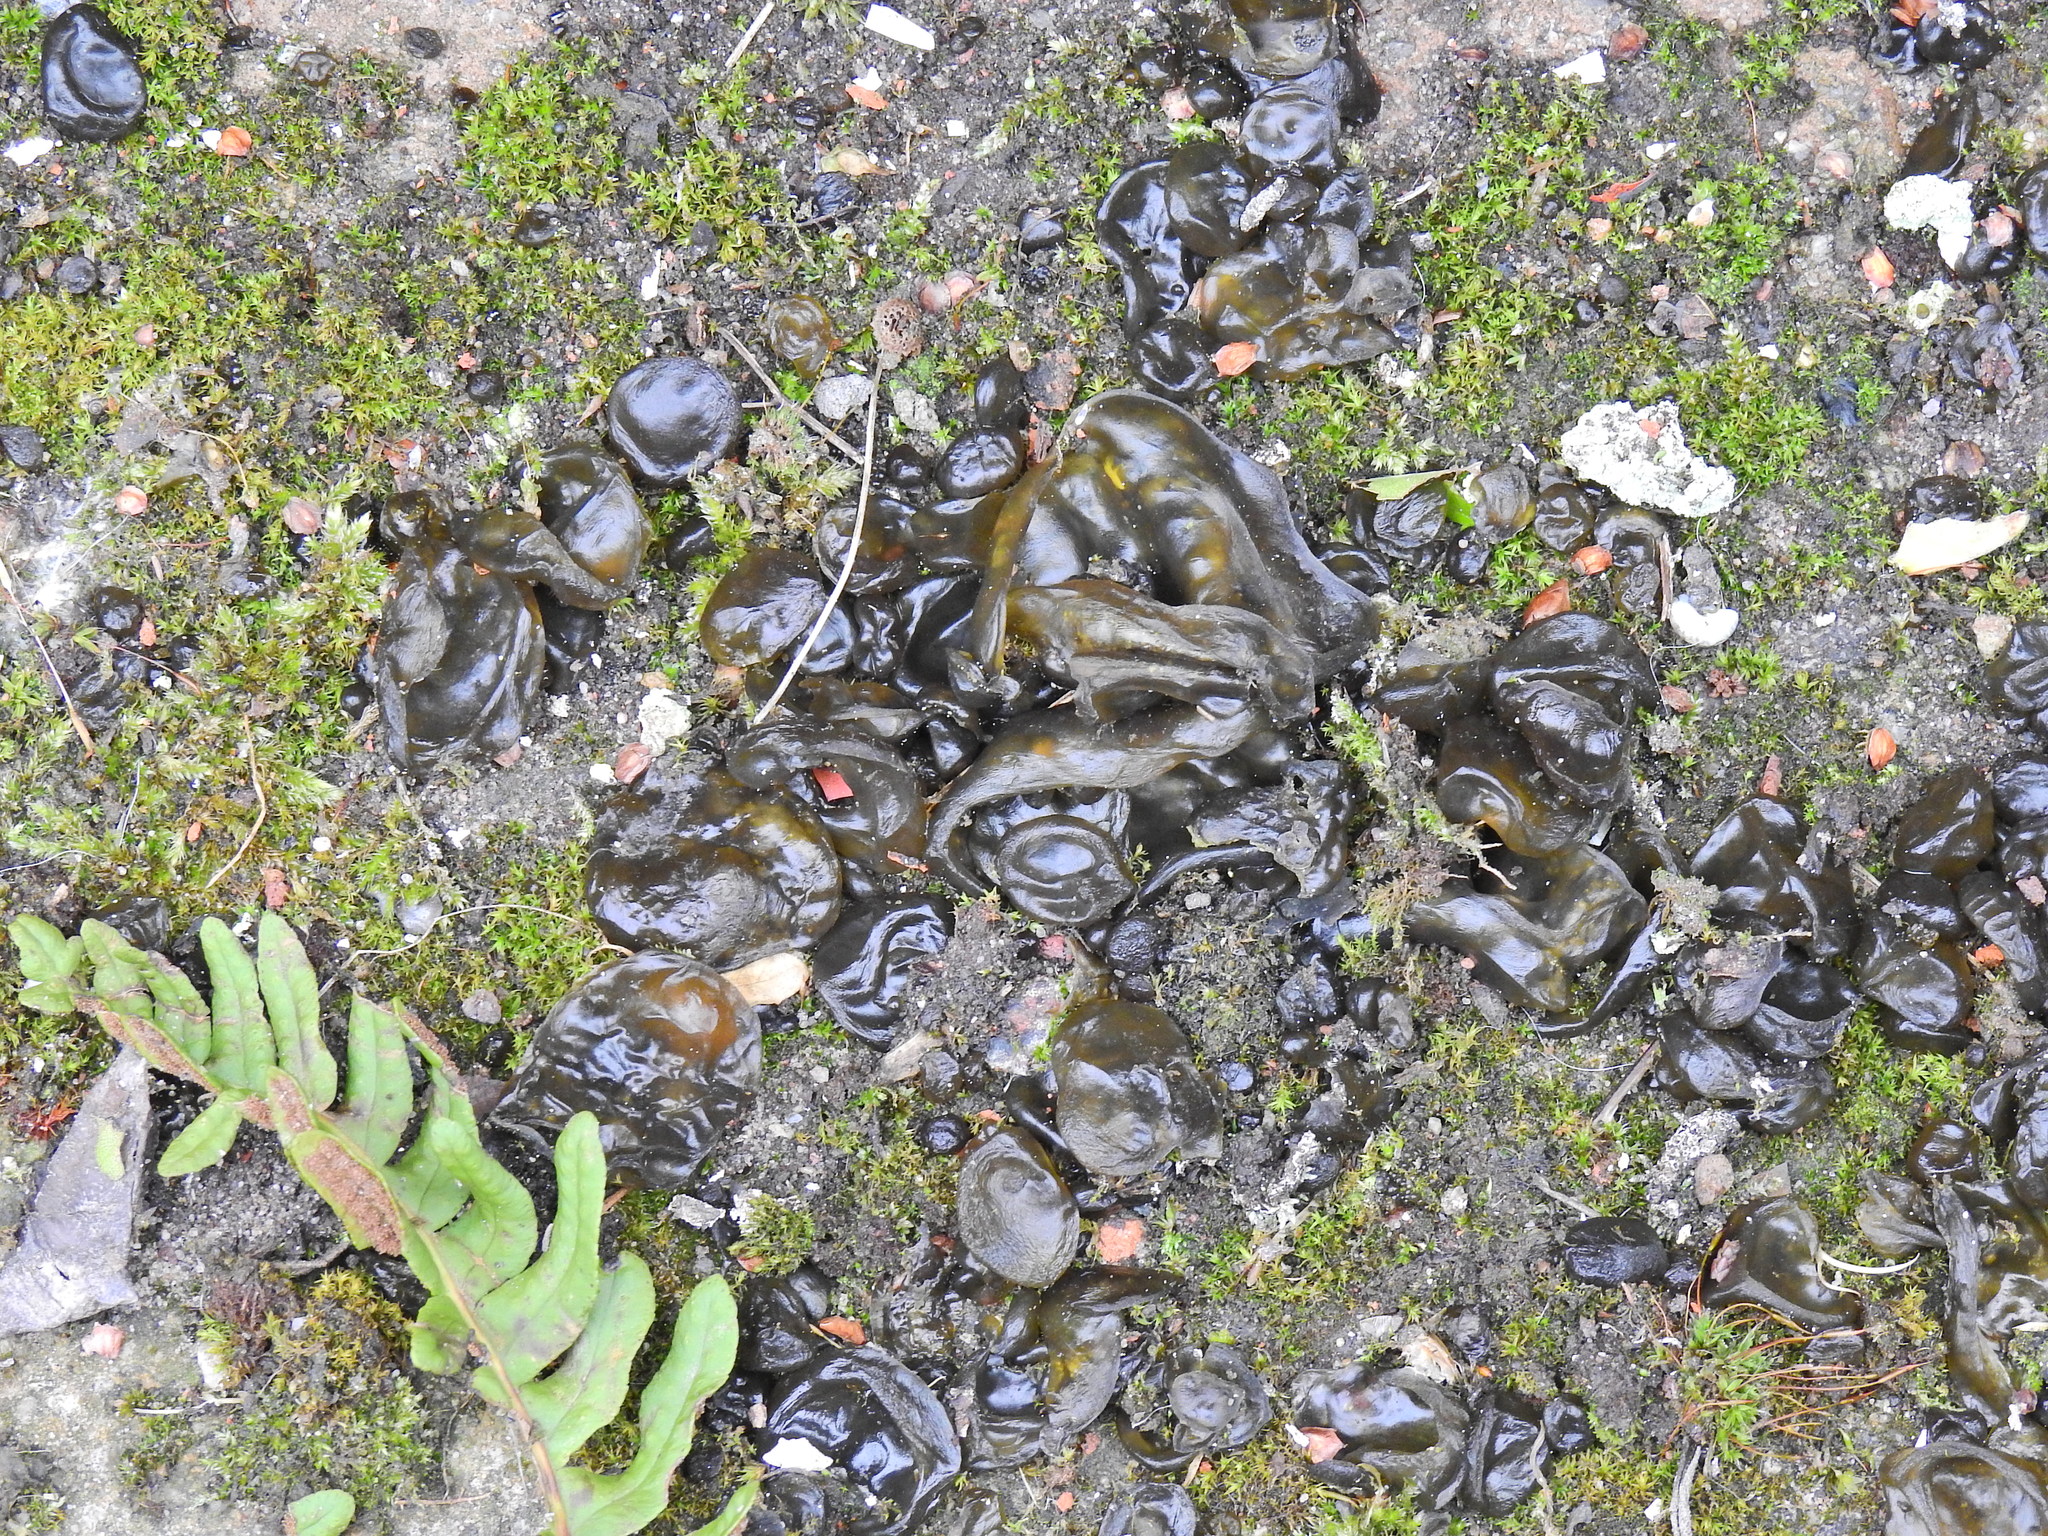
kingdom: Bacteria
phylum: Cyanobacteria
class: Cyanobacteriia
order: Cyanobacteriales
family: Nostocaceae
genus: Nostoc
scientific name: Nostoc commune
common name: Star jelly
